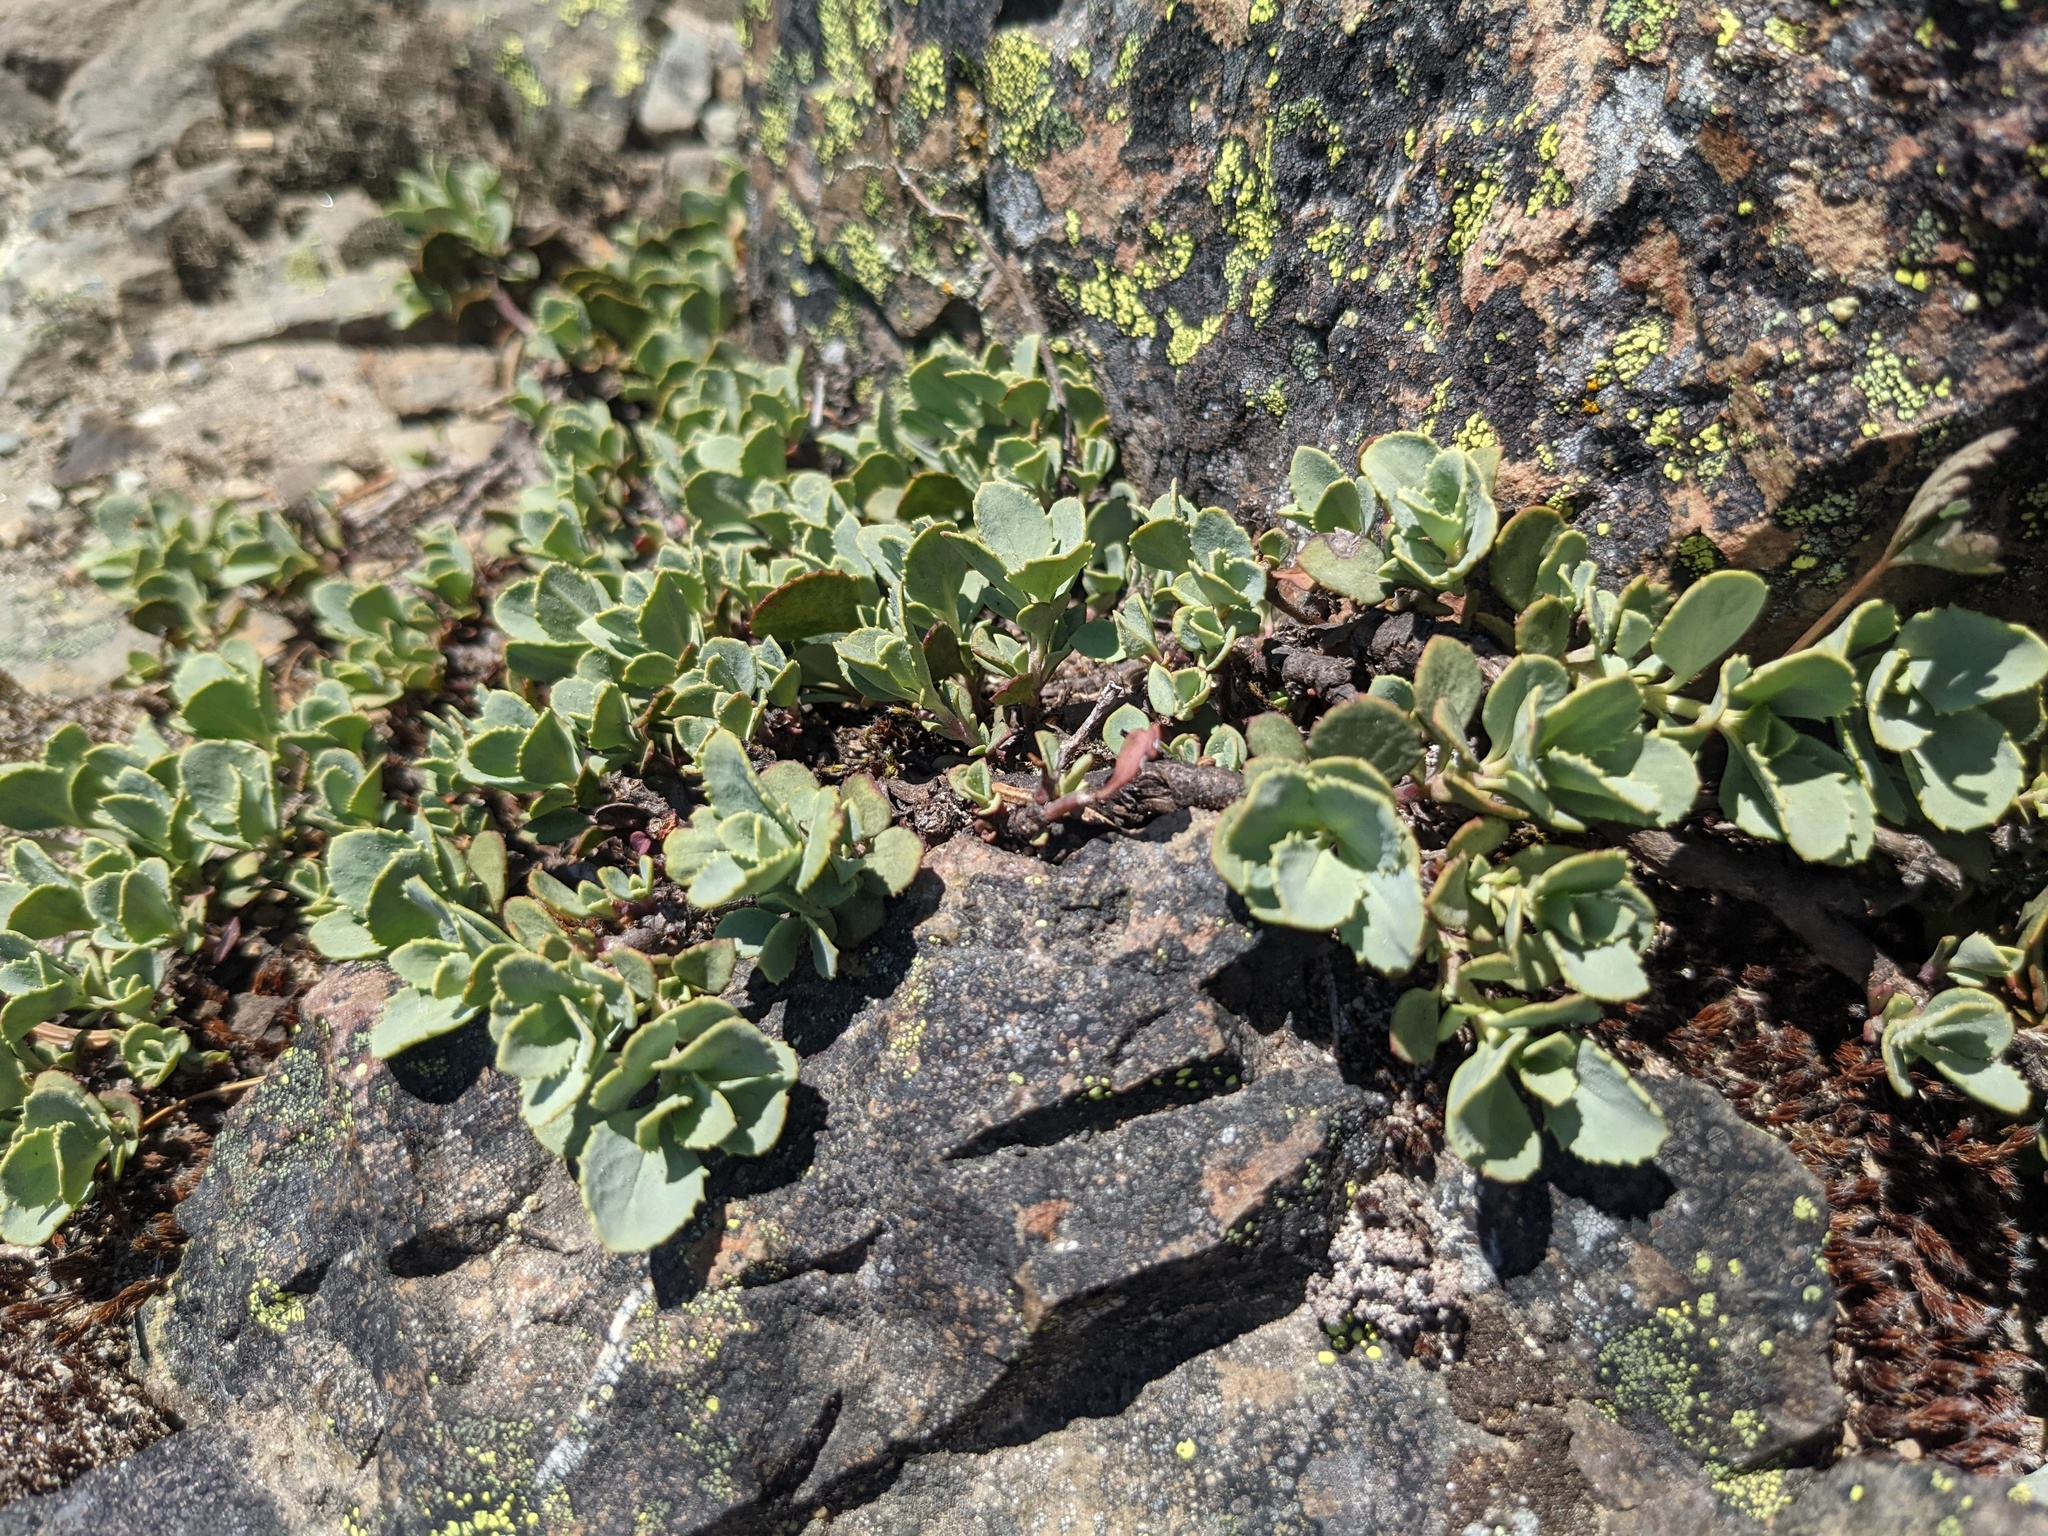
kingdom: Plantae
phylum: Tracheophyta
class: Magnoliopsida
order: Lamiales
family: Plantaginaceae
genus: Penstemon
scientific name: Penstemon rupicola
